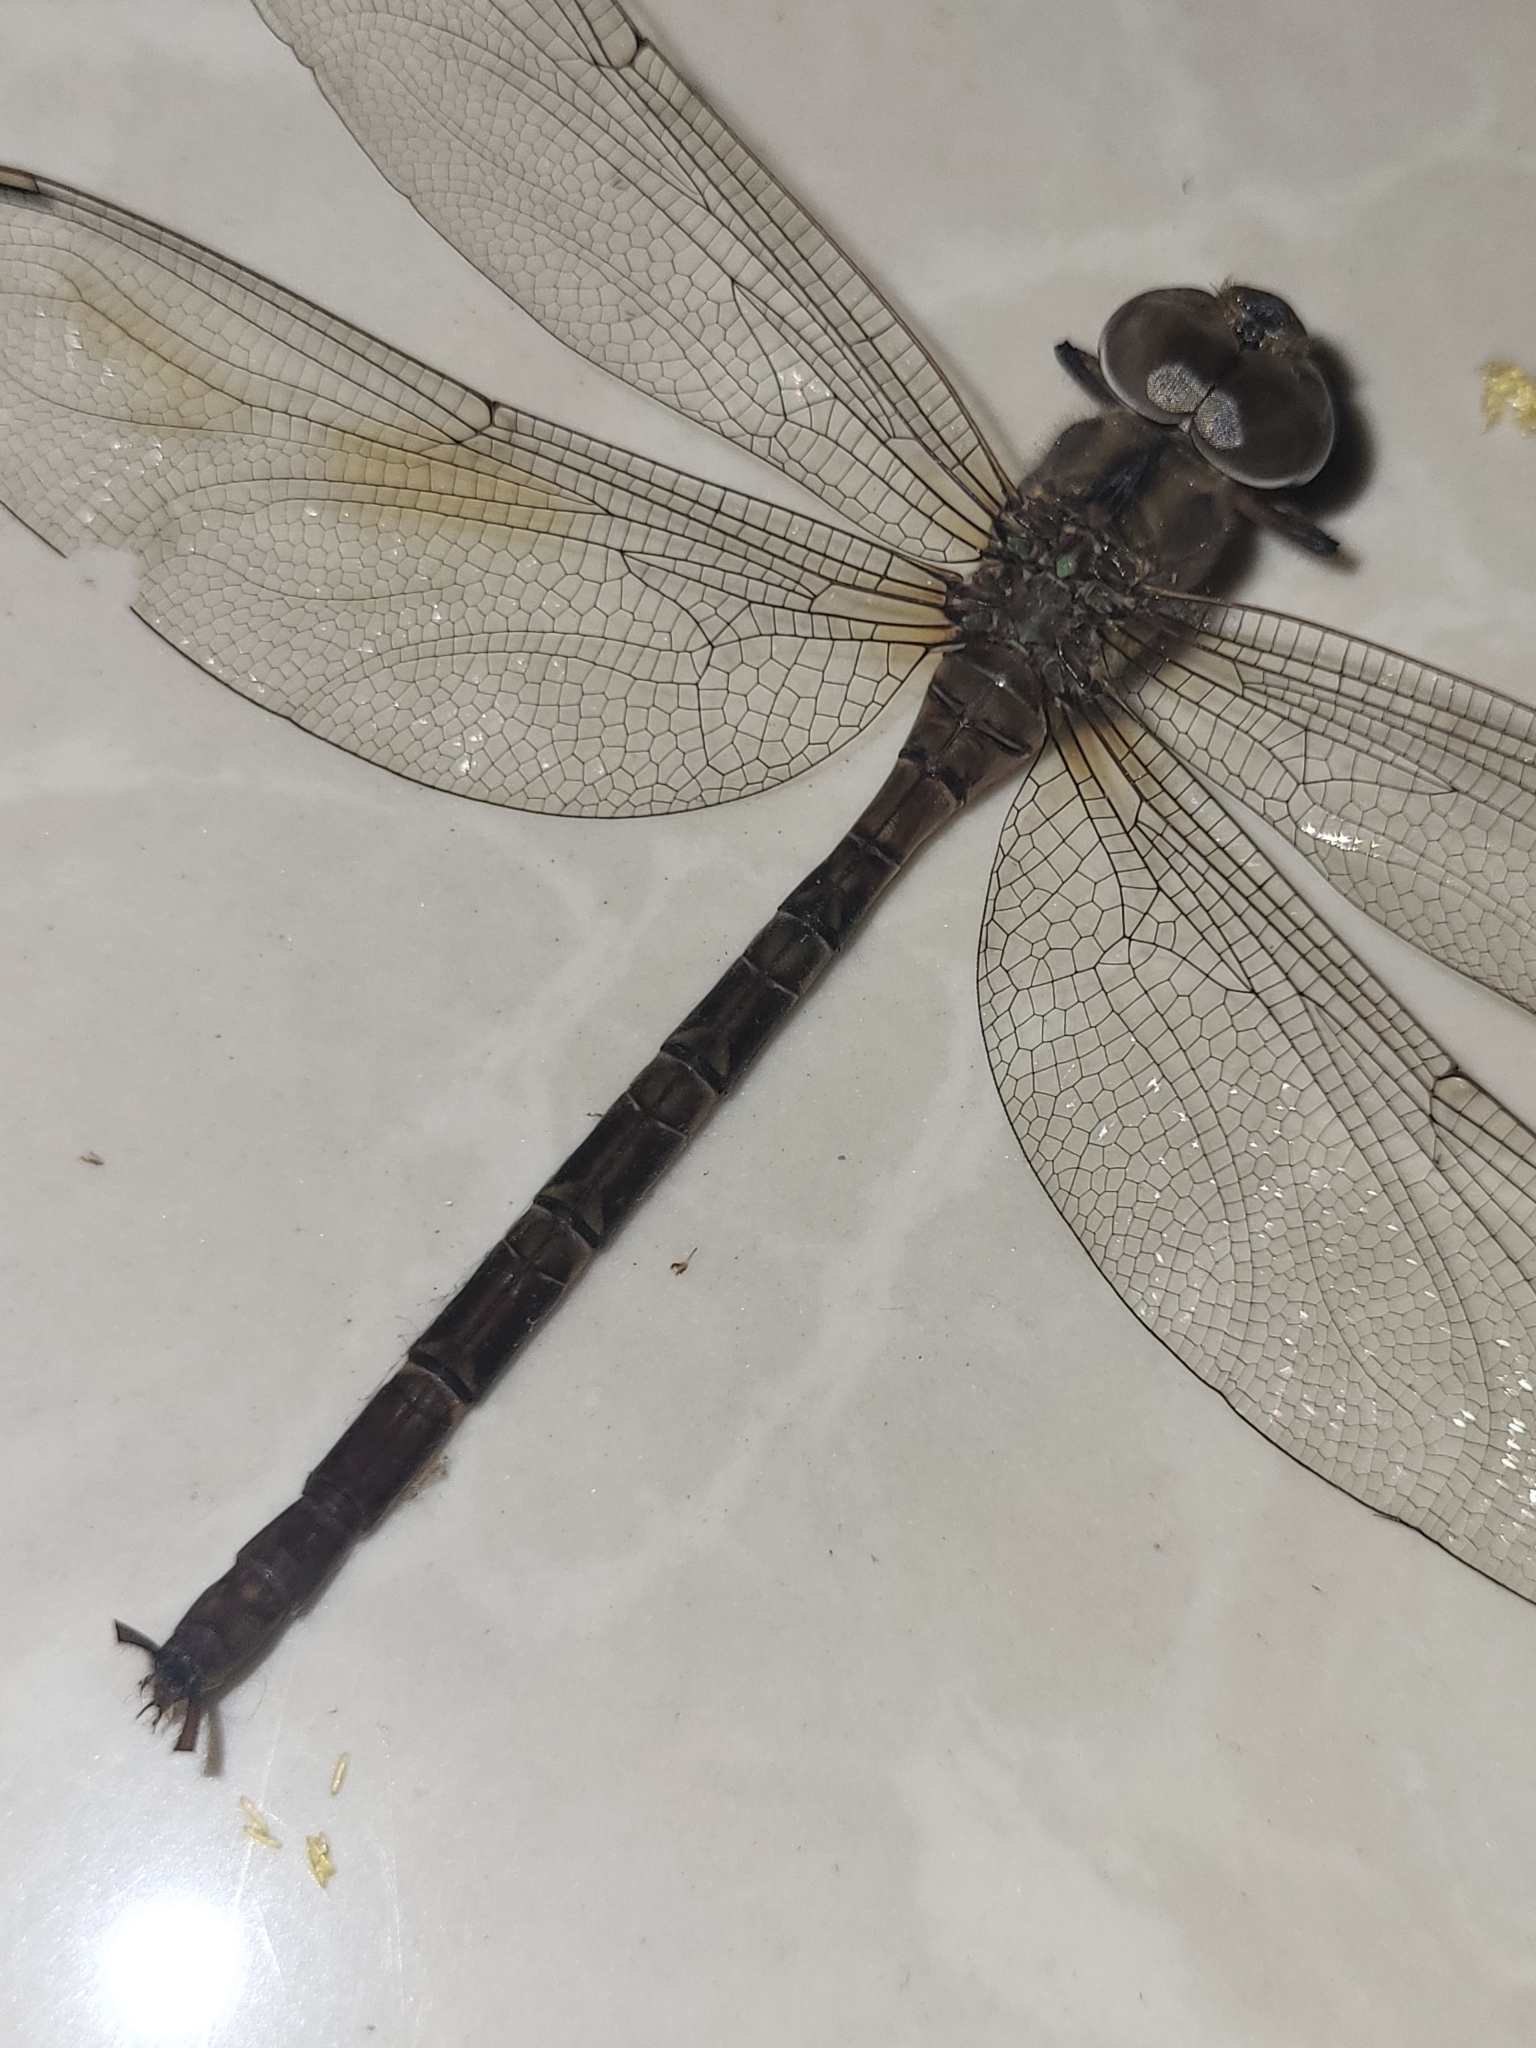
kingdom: Animalia
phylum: Arthropoda
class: Insecta
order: Odonata
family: Aeshnidae
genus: Gynacantha
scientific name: Gynacantha subinterrupta
